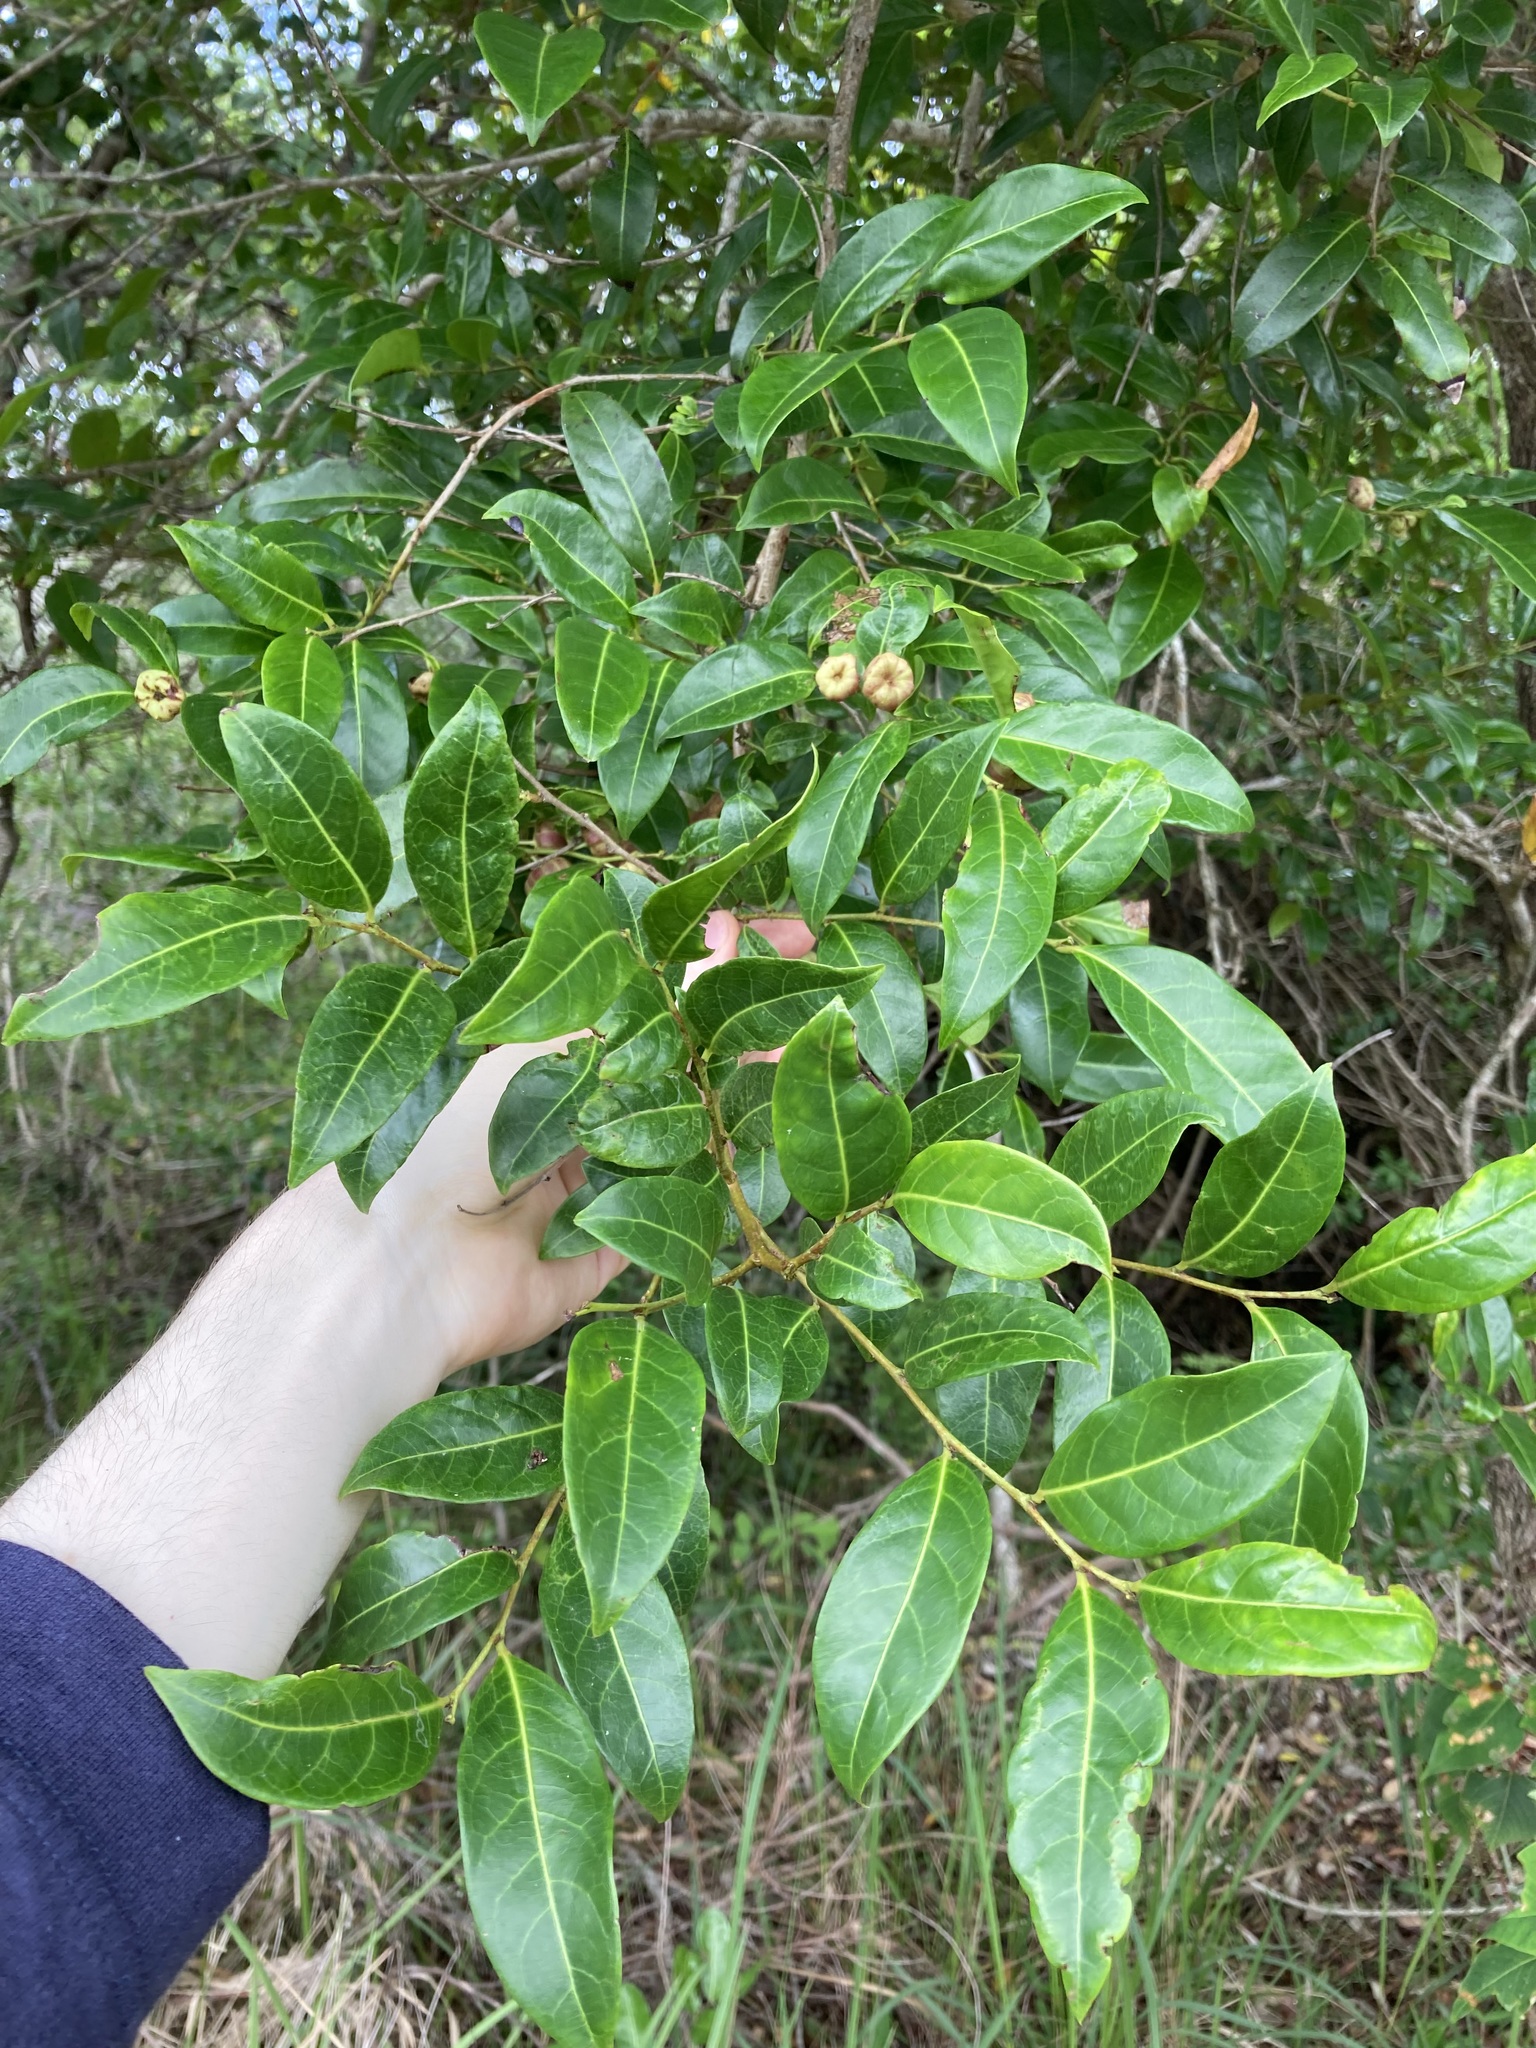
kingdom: Plantae
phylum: Tracheophyta
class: Magnoliopsida
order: Malpighiales
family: Phyllanthaceae
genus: Glochidion
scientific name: Glochidion ferdinandi
